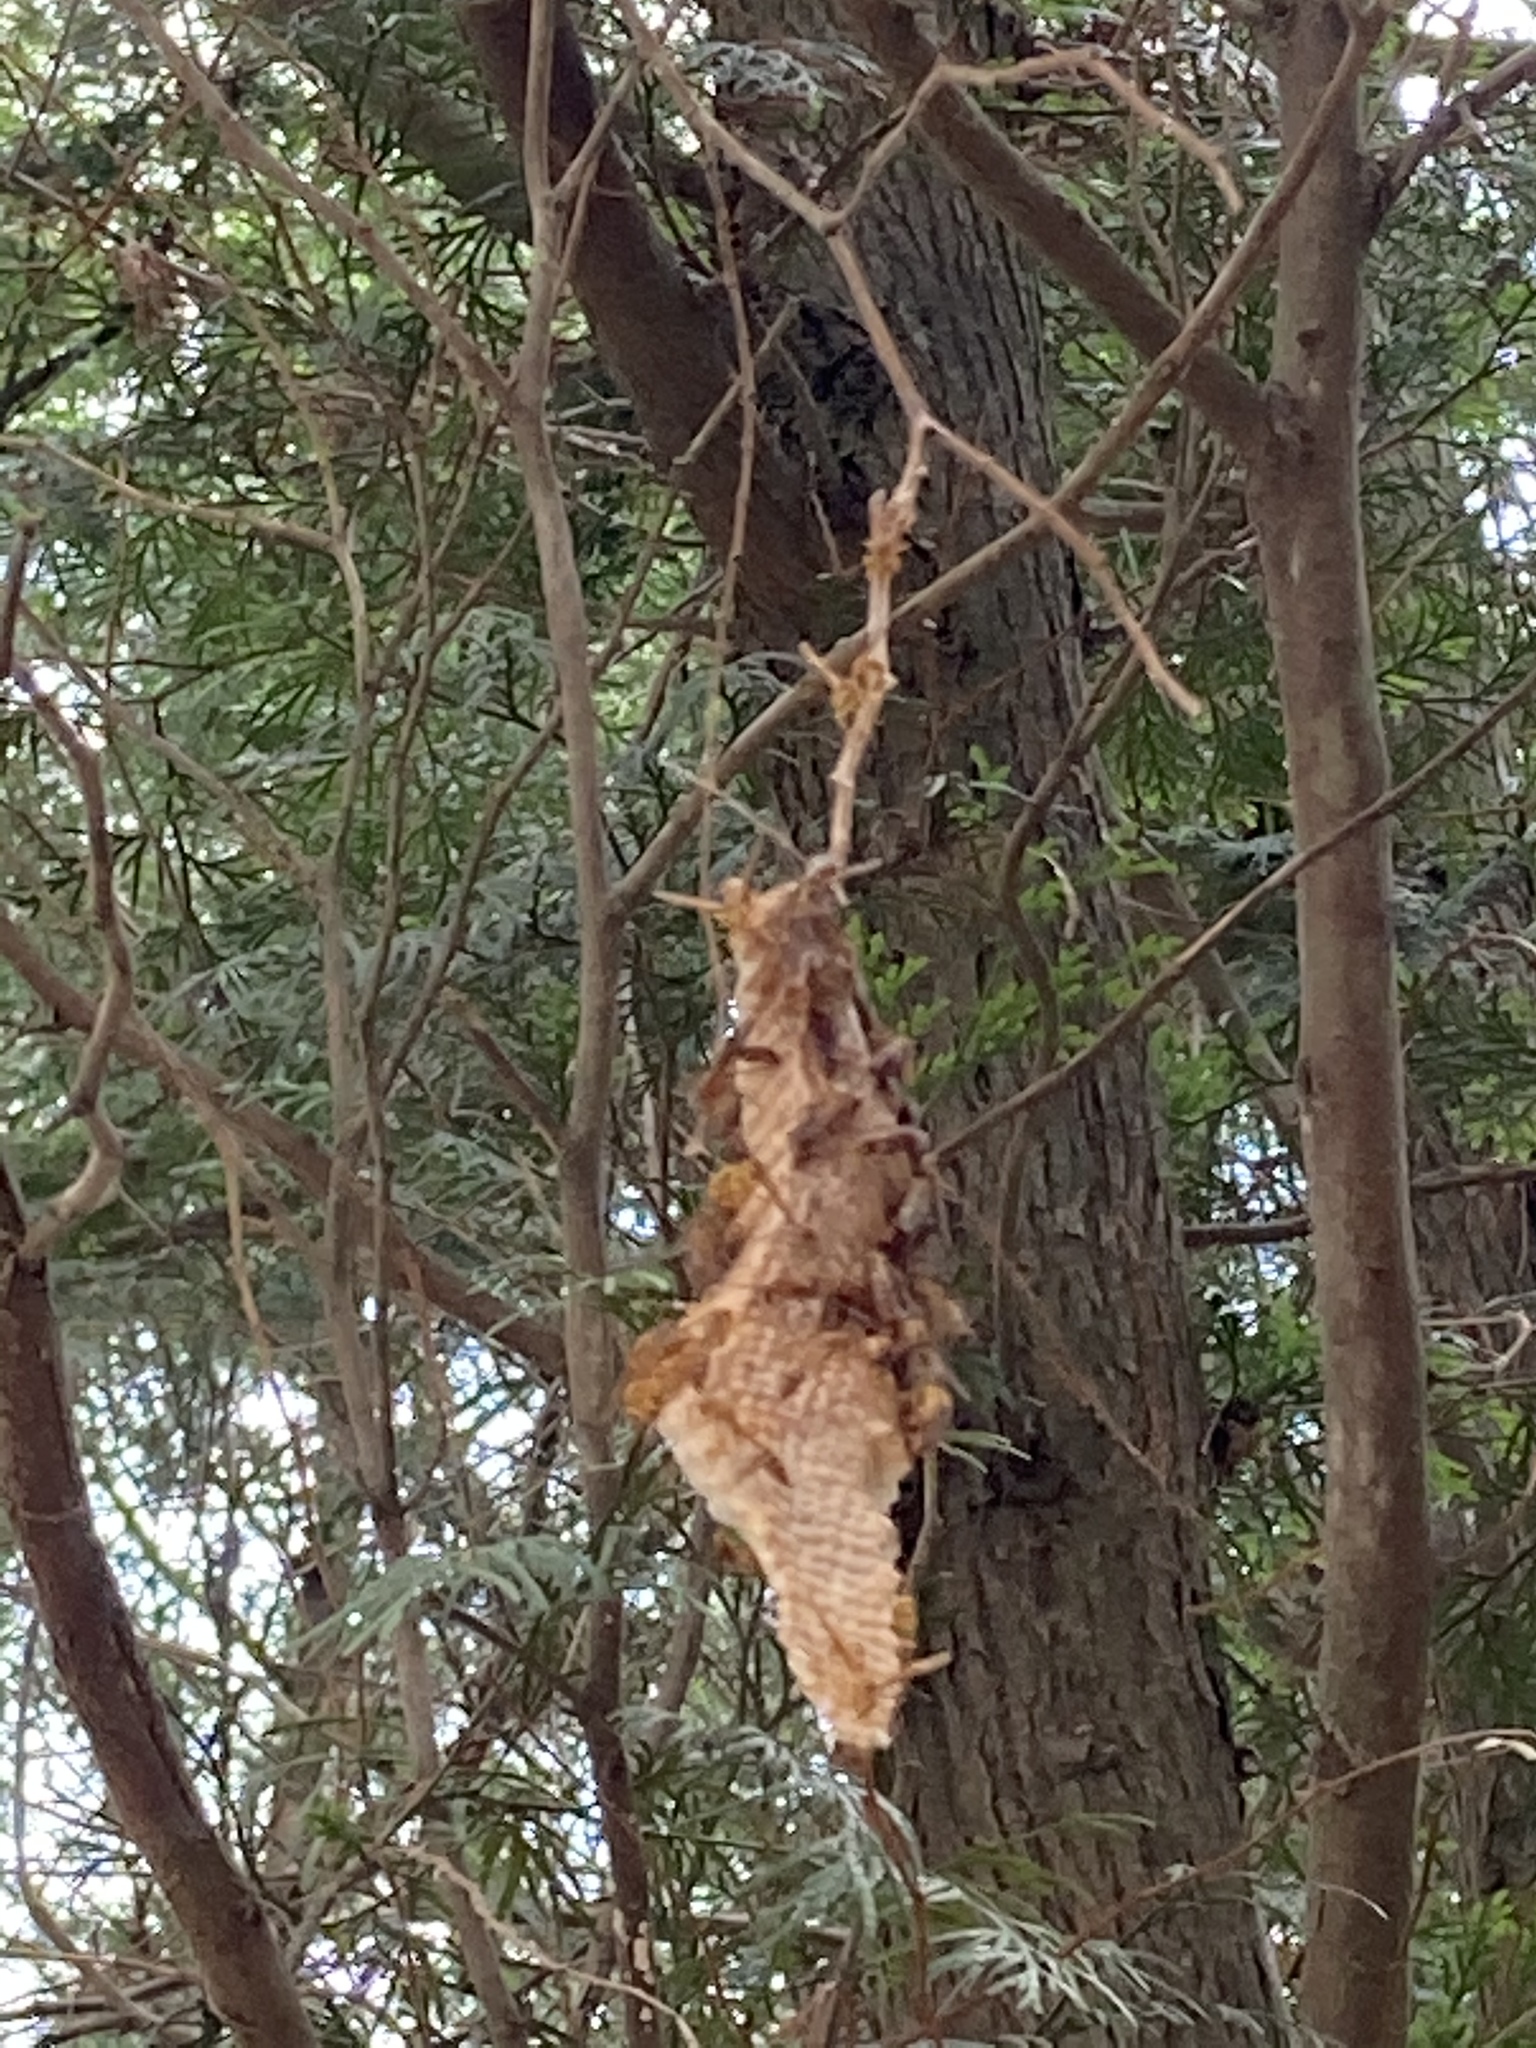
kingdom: Animalia
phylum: Arthropoda
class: Insecta
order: Hymenoptera
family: Vespidae
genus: Parapolybia
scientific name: Parapolybia varia
